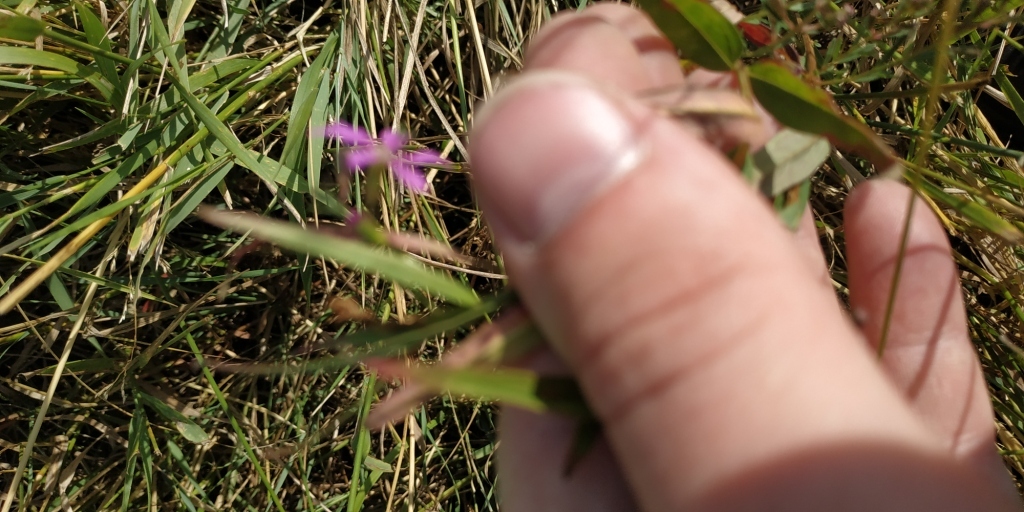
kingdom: Plantae
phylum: Tracheophyta
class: Magnoliopsida
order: Myrtales
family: Lythraceae
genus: Lythrum
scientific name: Lythrum virgatum
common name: European wand loosestrife
